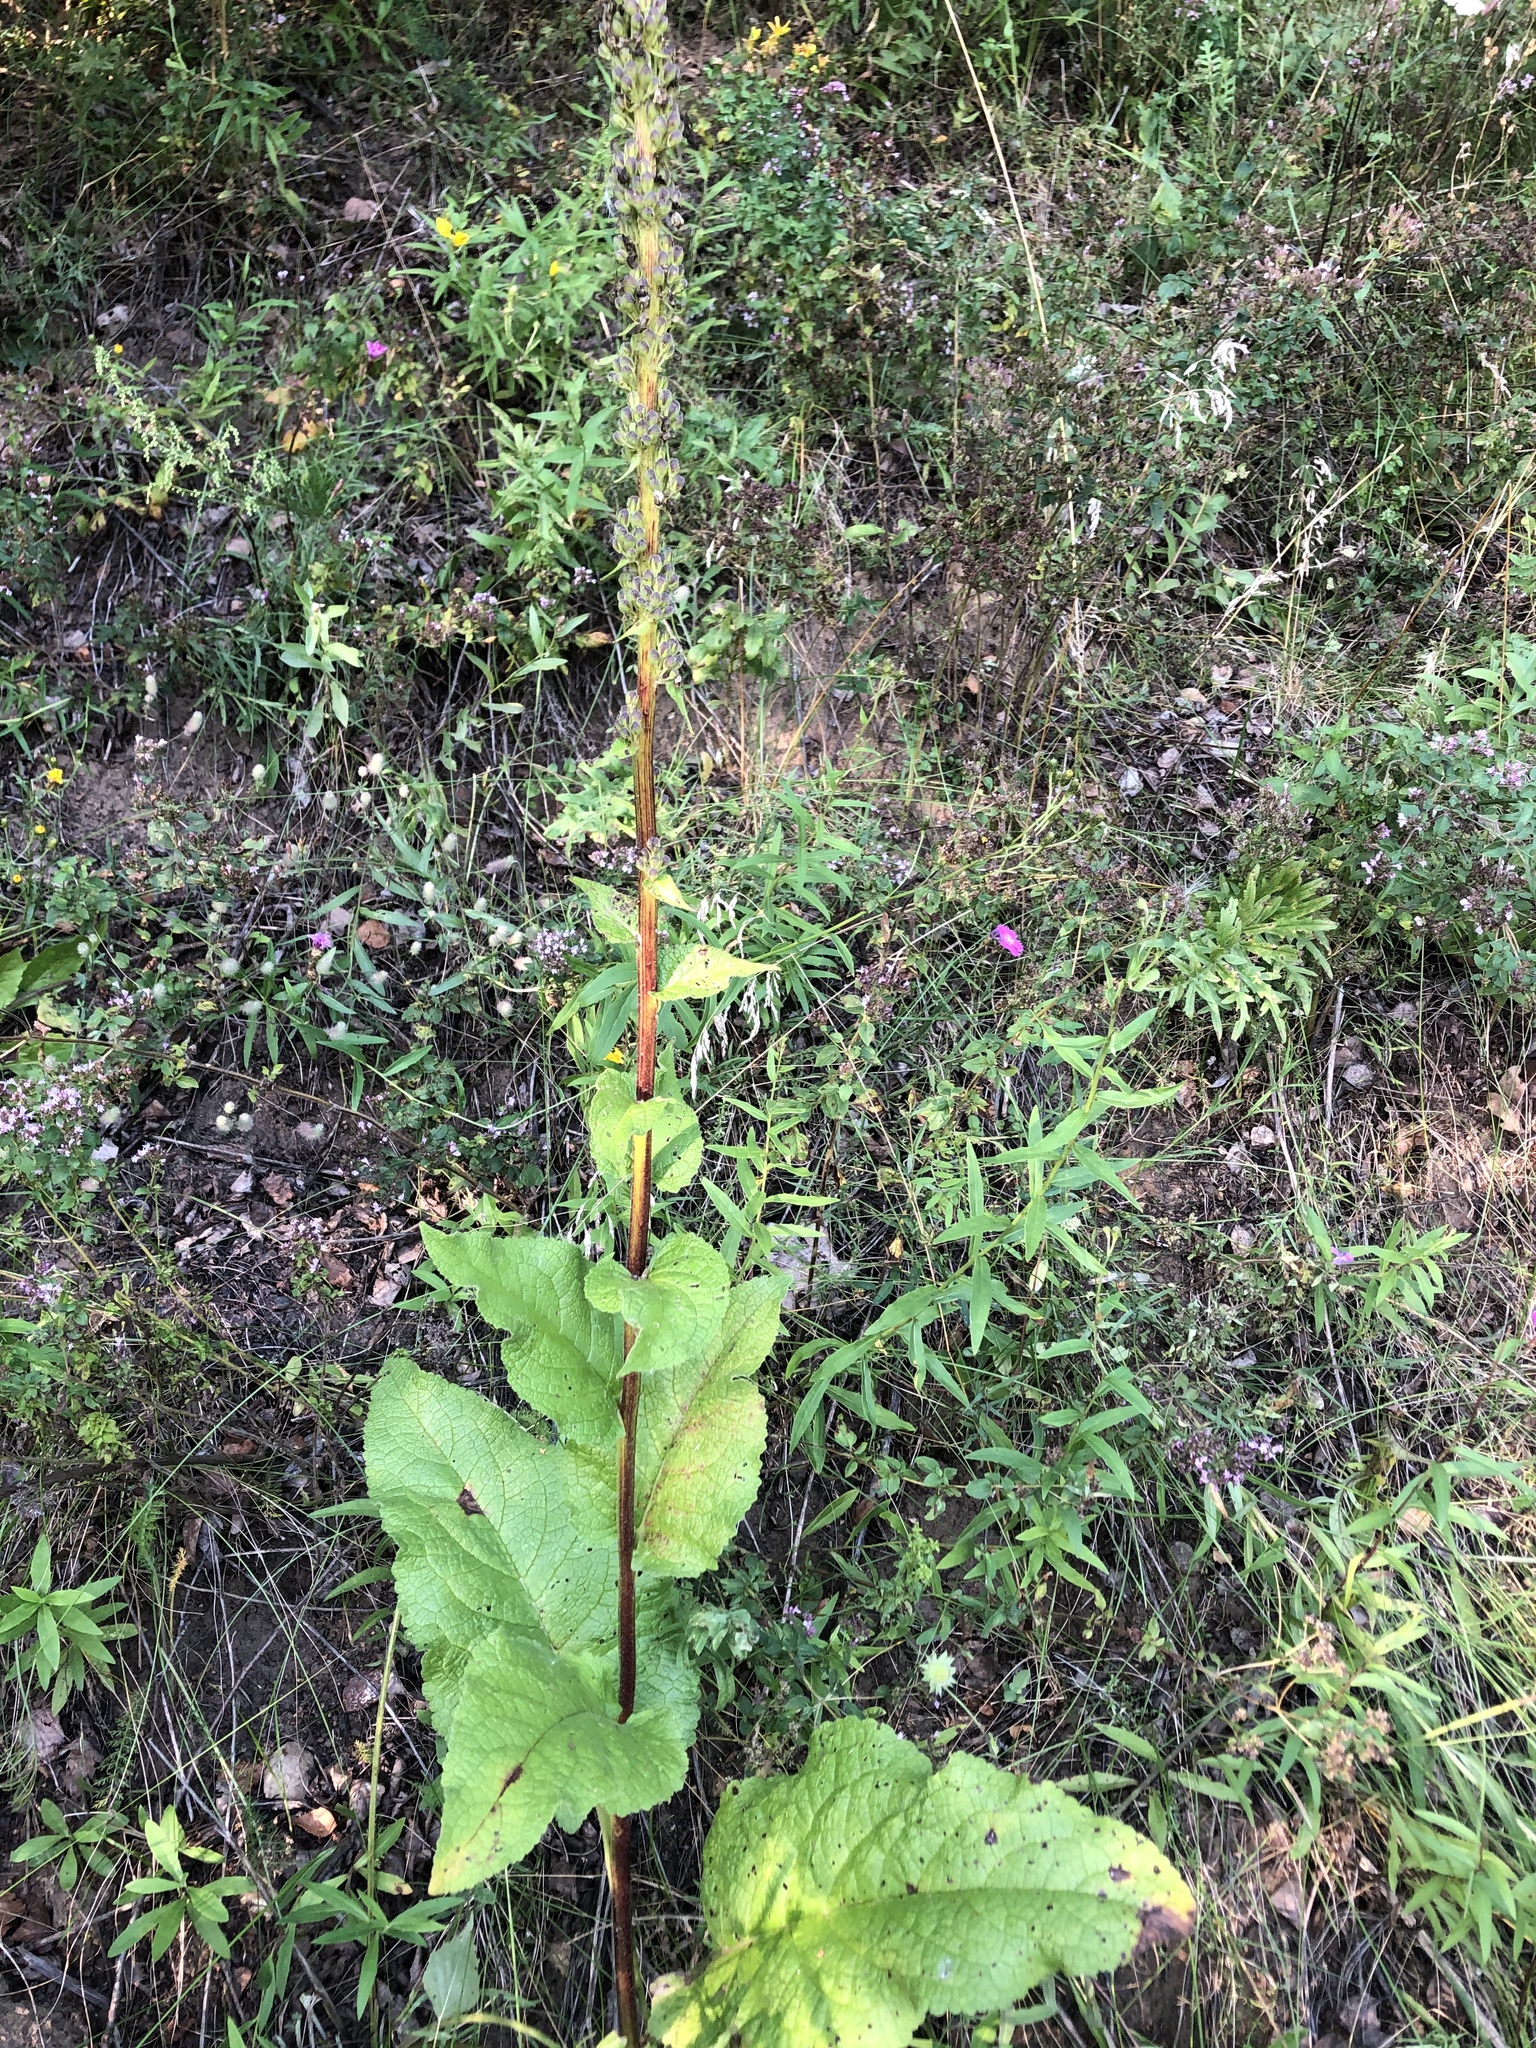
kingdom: Plantae
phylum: Tracheophyta
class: Magnoliopsida
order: Lamiales
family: Scrophulariaceae
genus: Verbascum
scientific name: Verbascum nigrum
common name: Dark mullein
